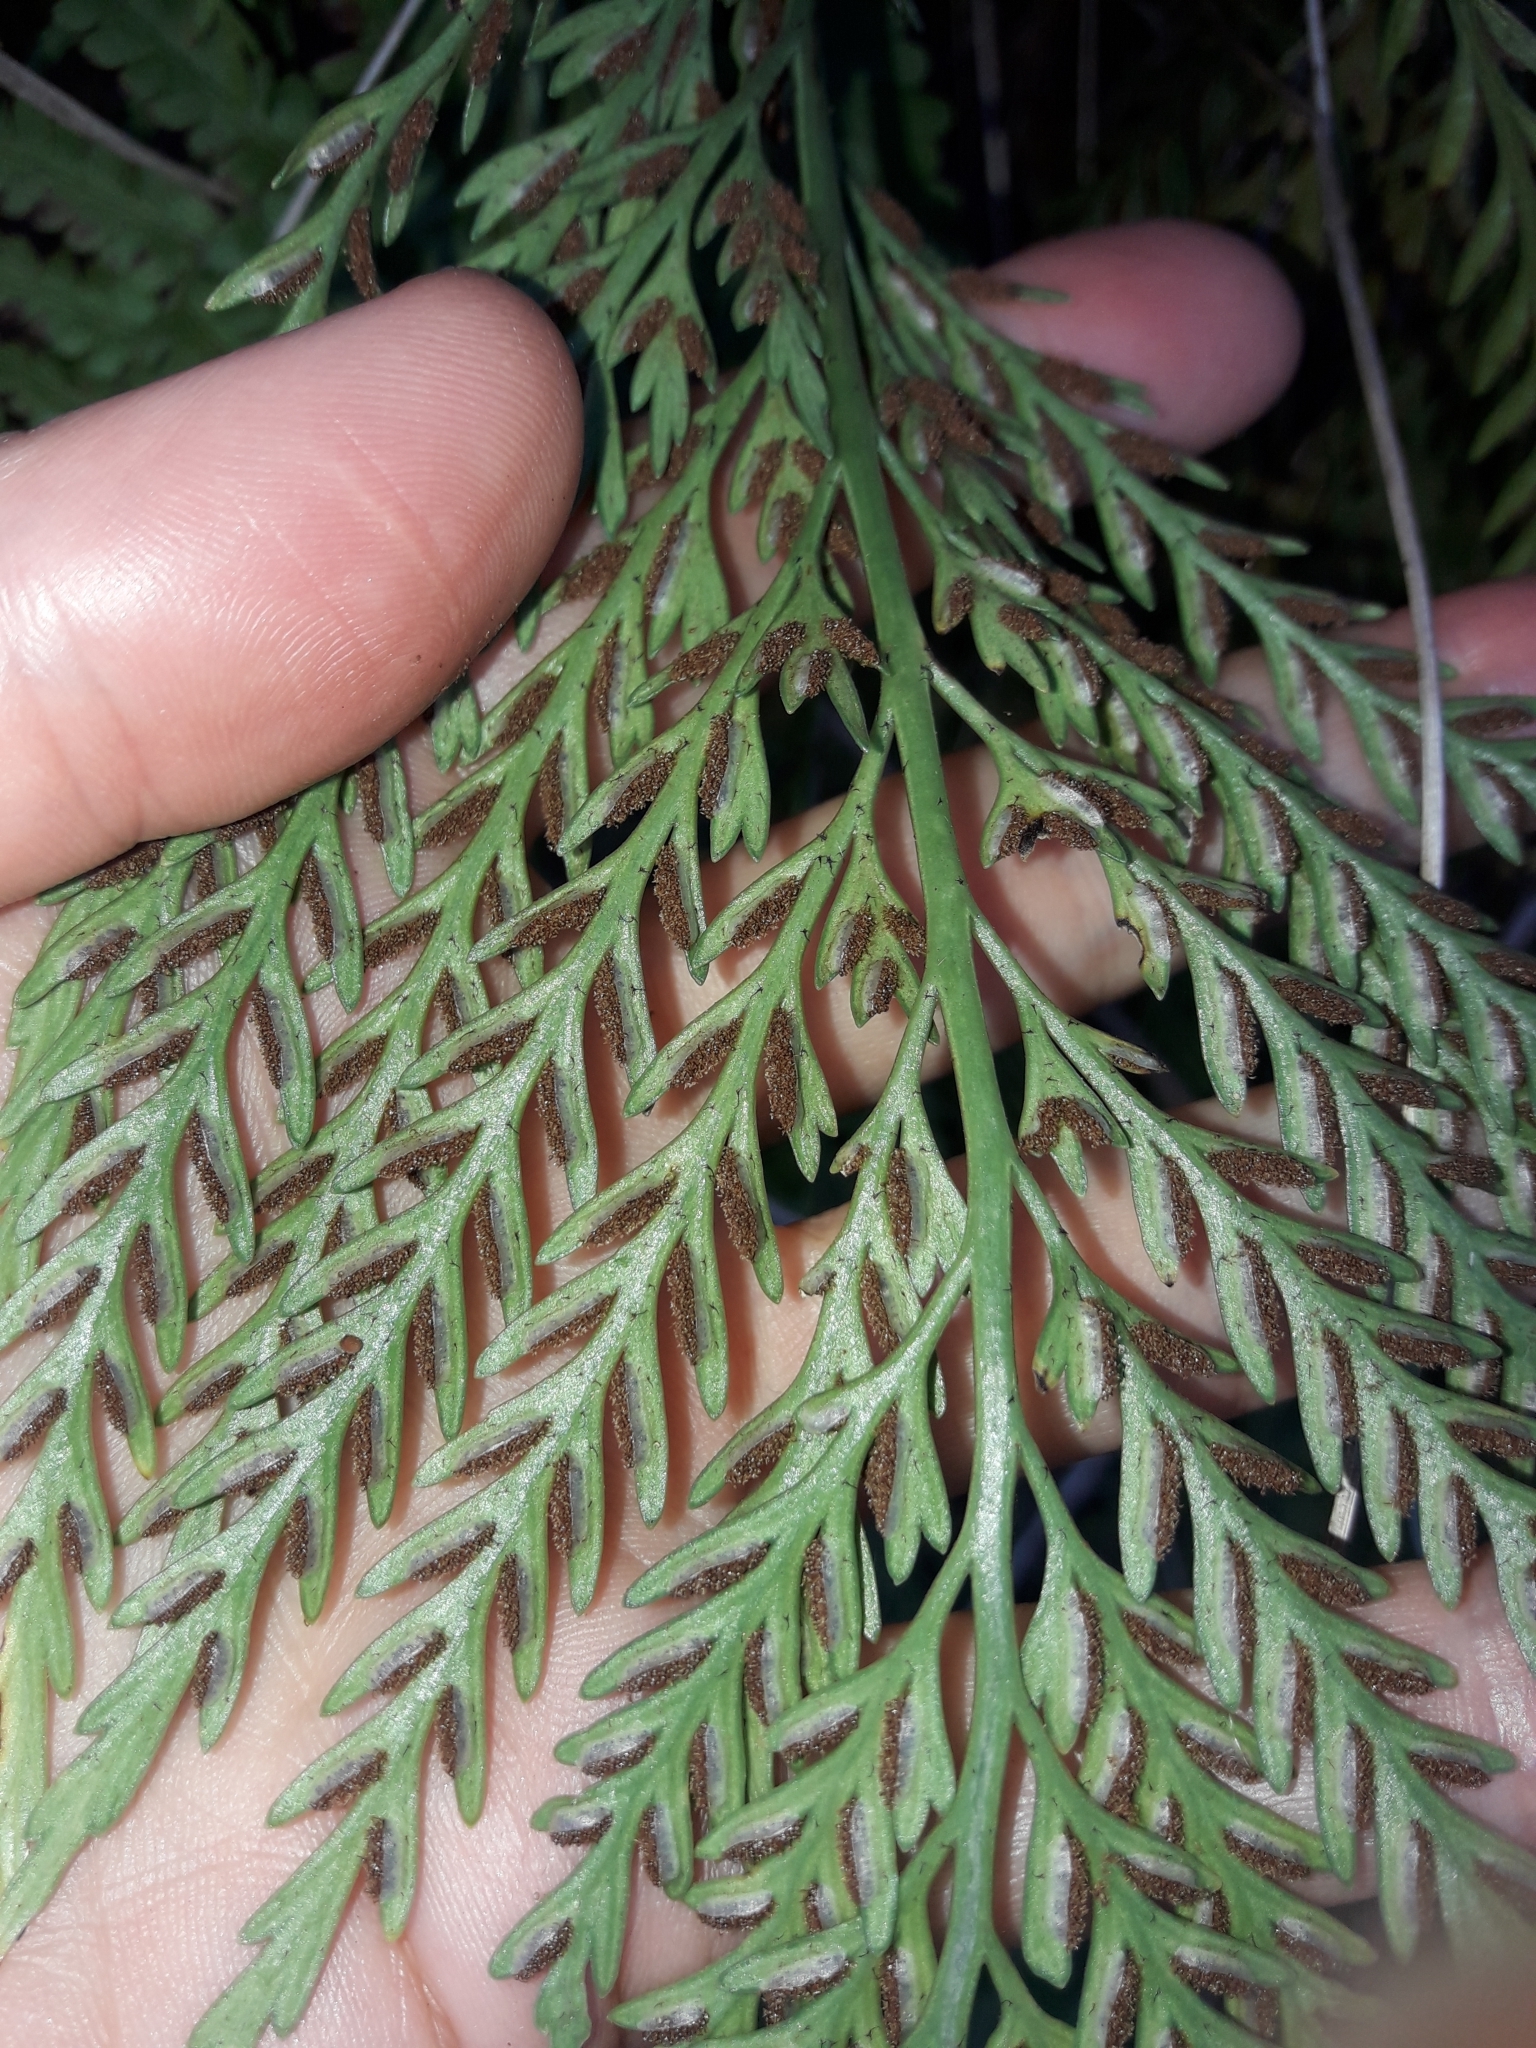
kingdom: Plantae
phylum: Tracheophyta
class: Polypodiopsida
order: Polypodiales
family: Aspleniaceae
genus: Asplenium
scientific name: Asplenium appendiculatum
